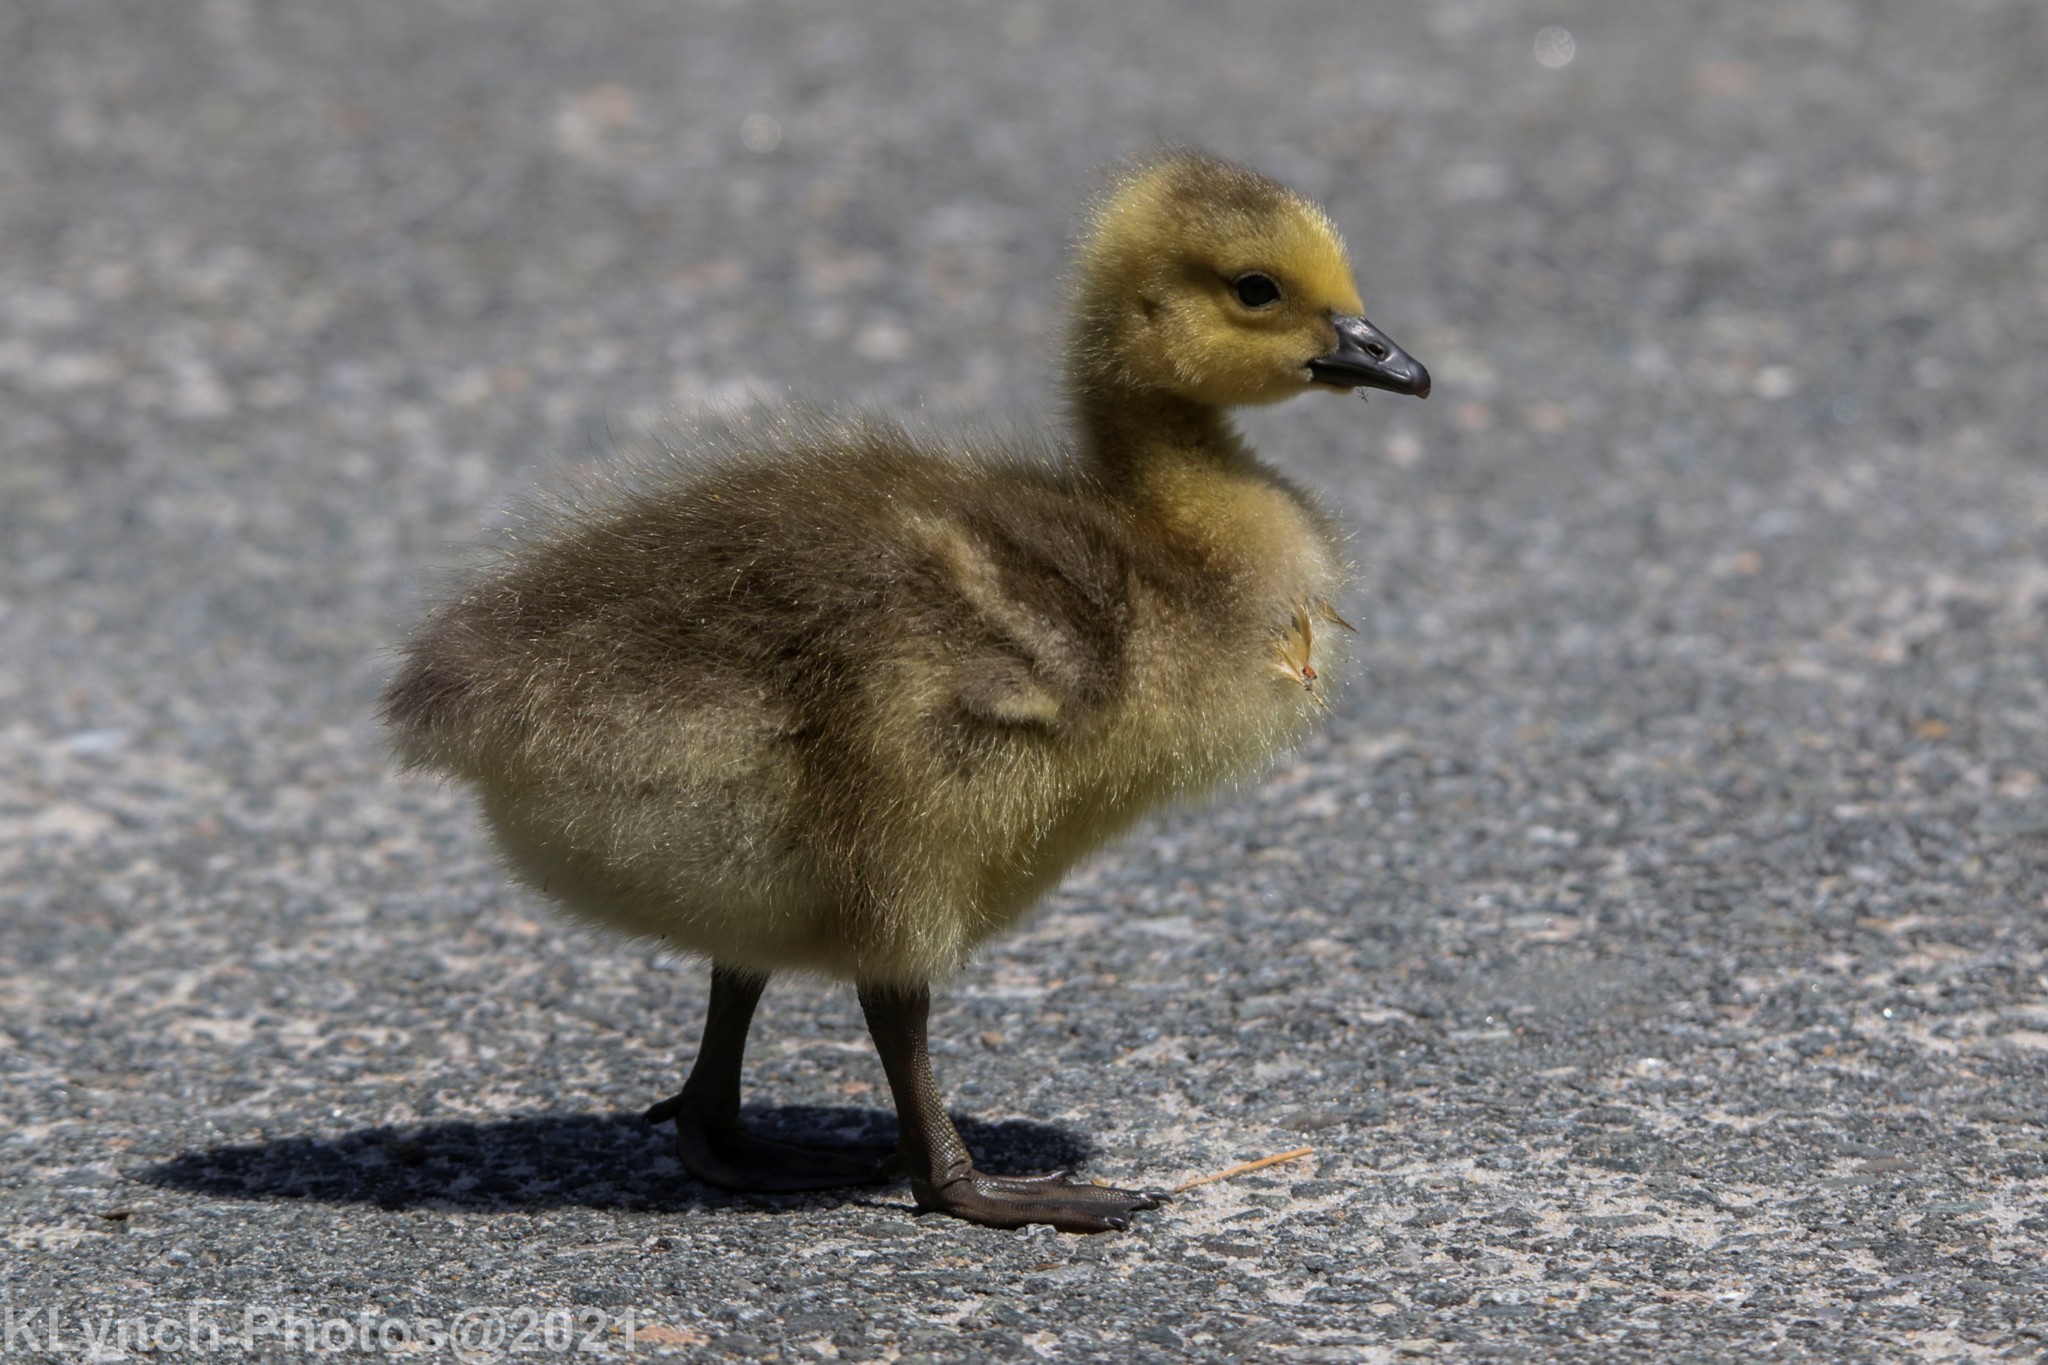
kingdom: Animalia
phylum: Chordata
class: Aves
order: Anseriformes
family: Anatidae
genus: Branta
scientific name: Branta canadensis
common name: Canada goose
